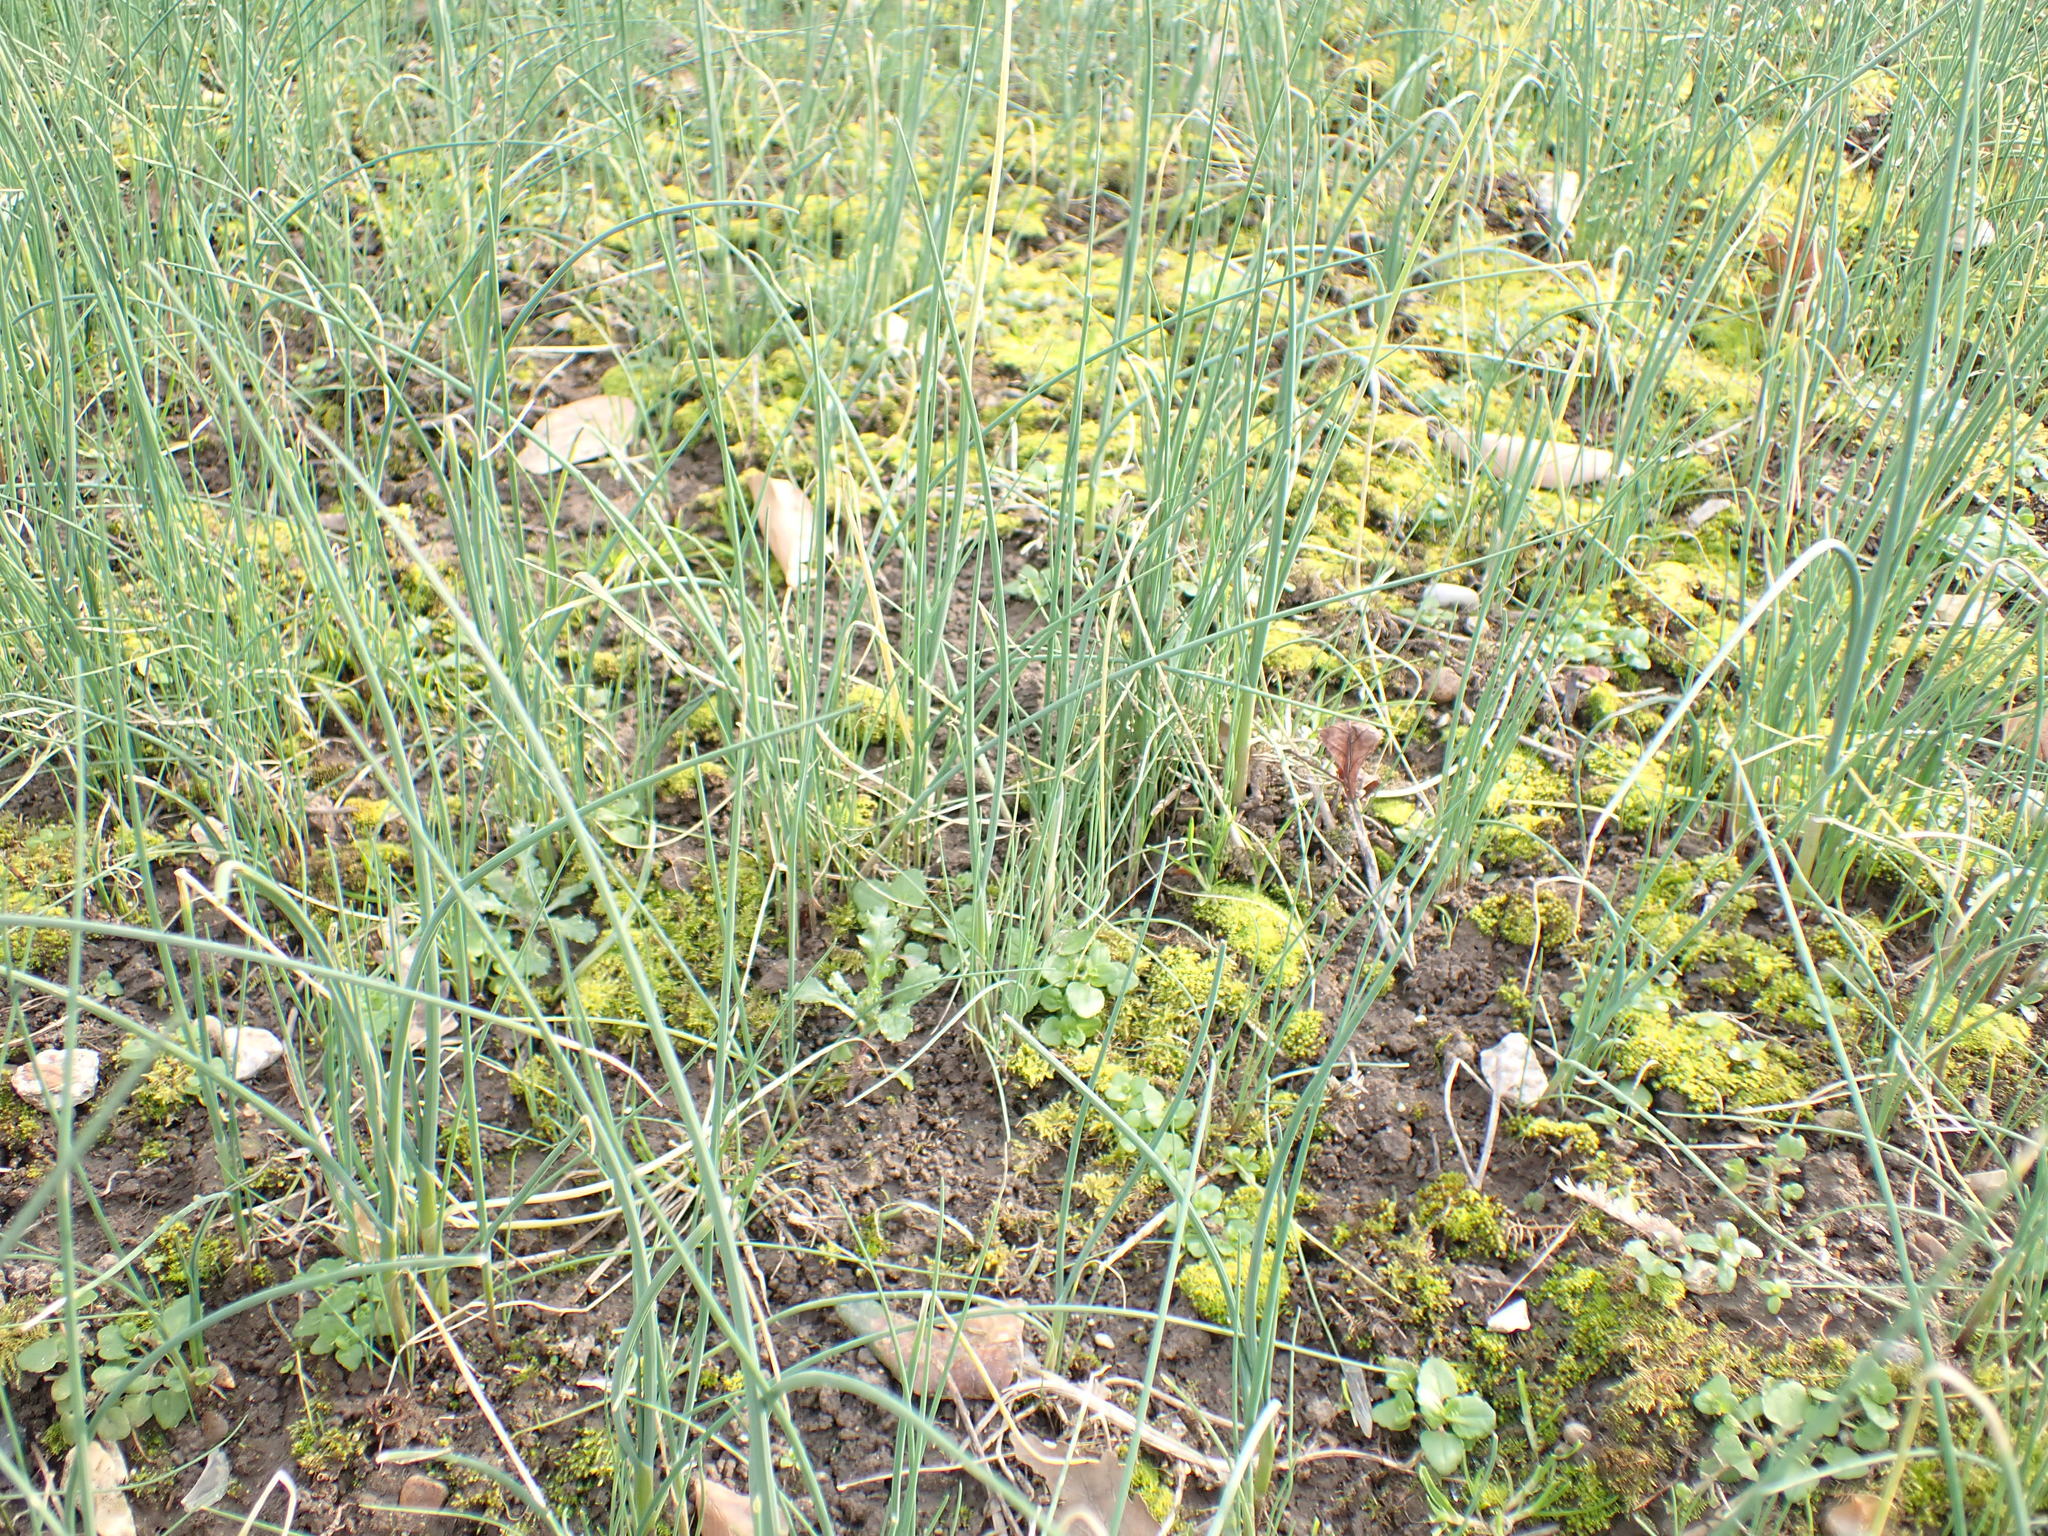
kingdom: Plantae
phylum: Tracheophyta
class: Liliopsida
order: Asparagales
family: Amaryllidaceae
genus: Allium
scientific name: Allium vineale
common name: Crow garlic
